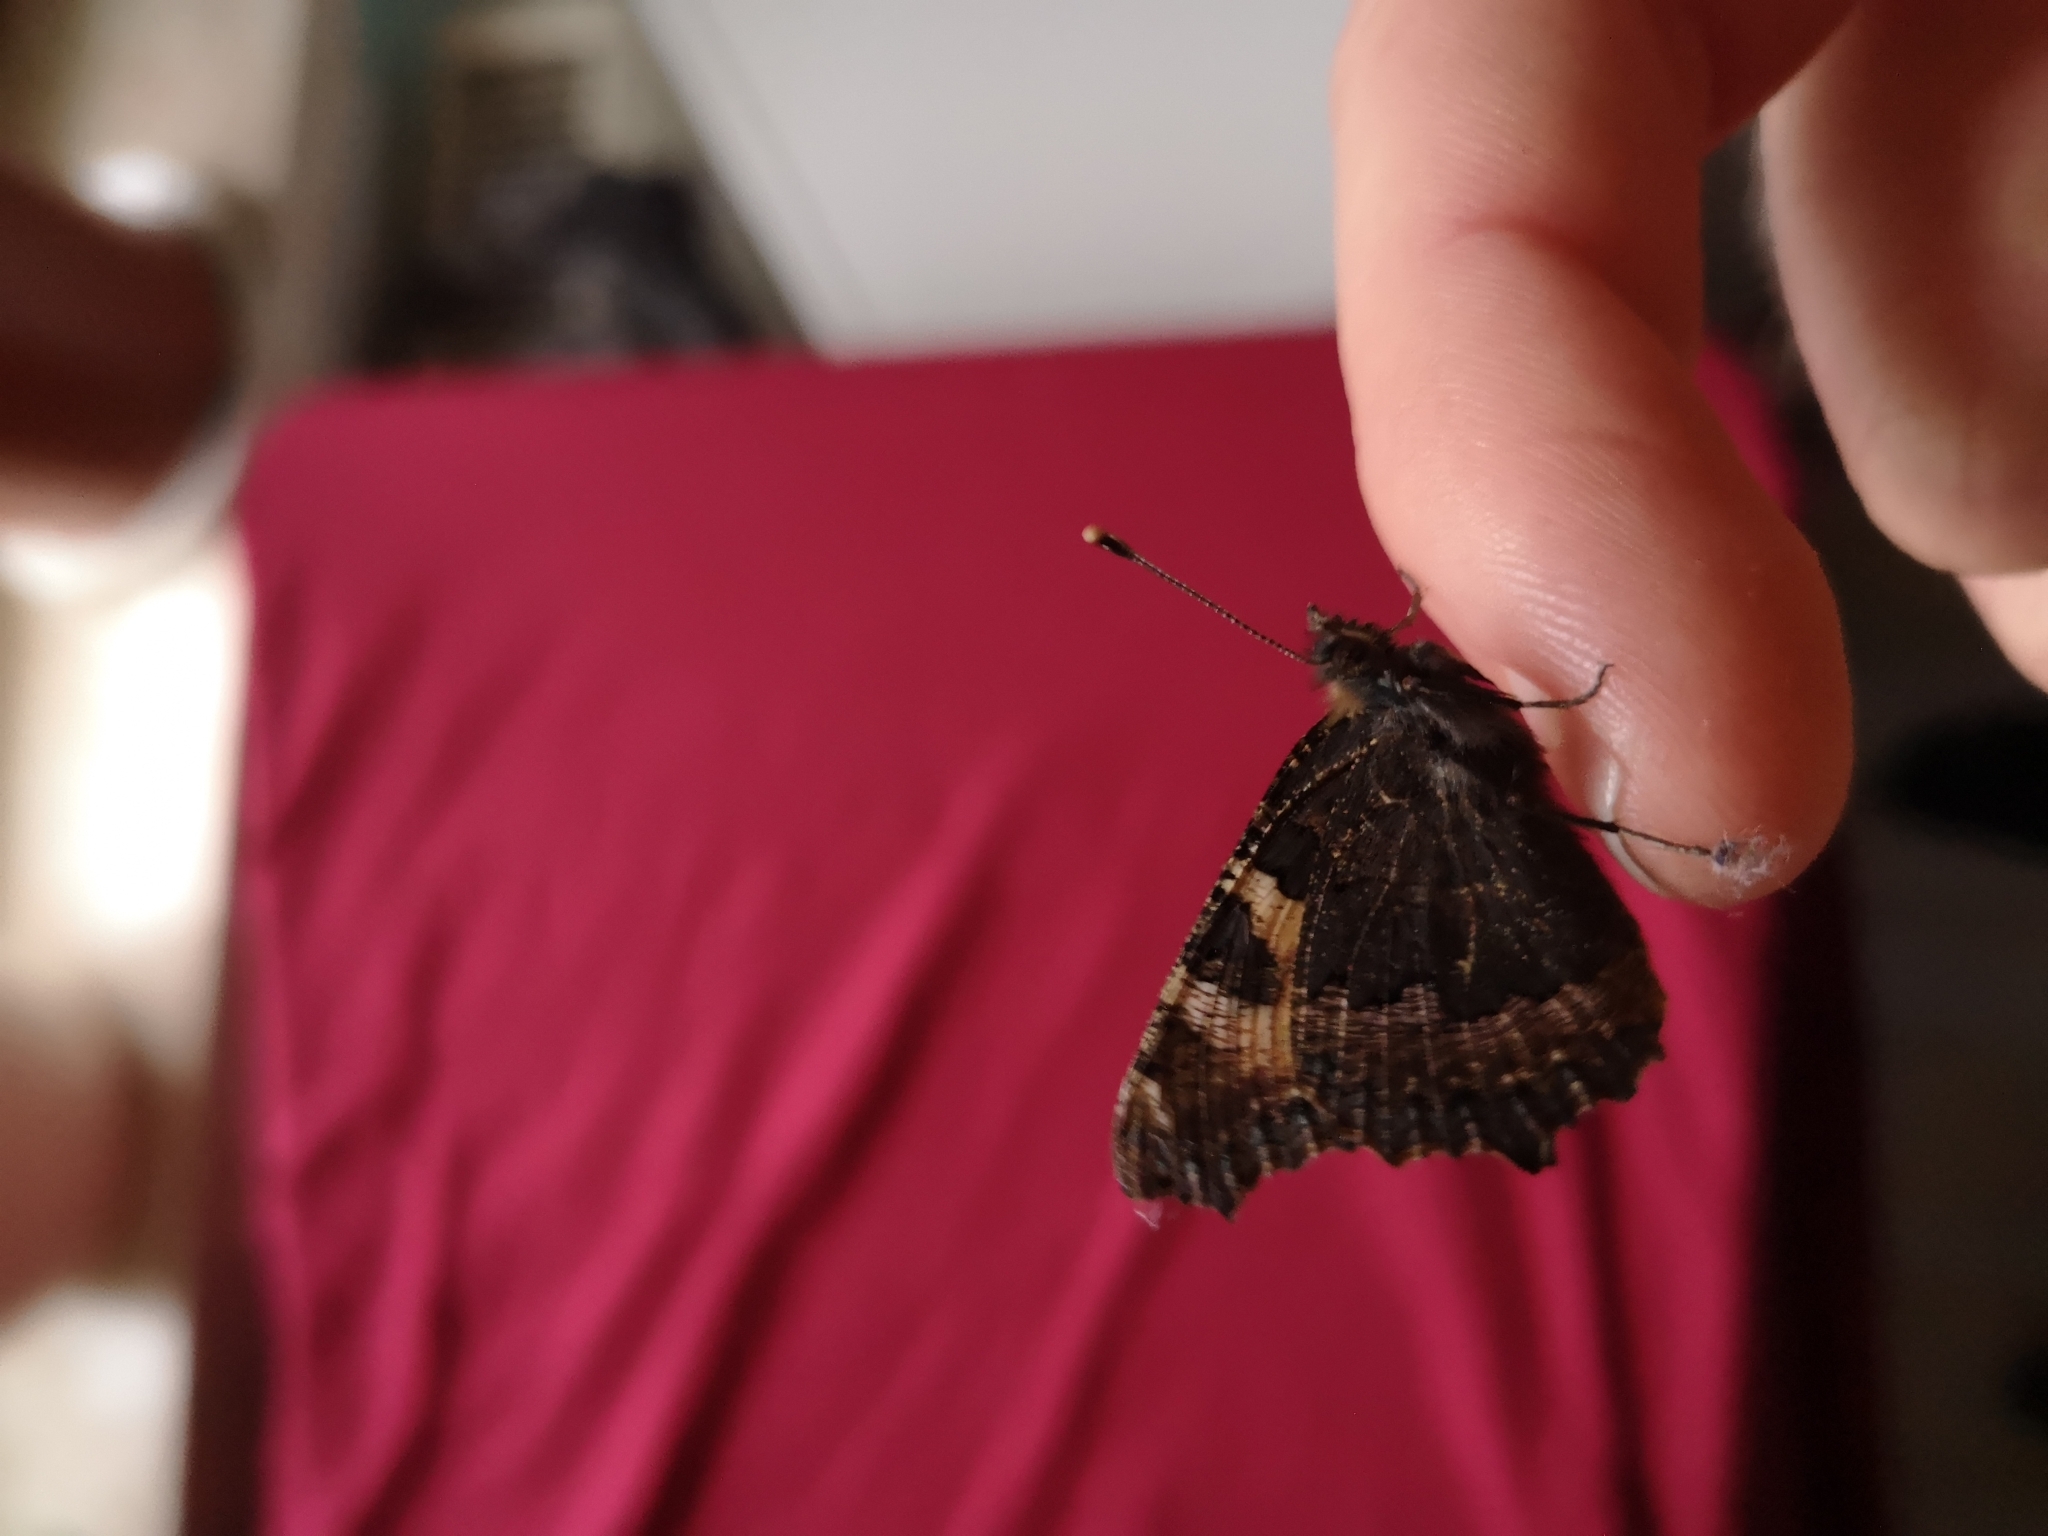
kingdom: Animalia
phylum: Arthropoda
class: Insecta
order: Lepidoptera
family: Nymphalidae
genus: Aglais
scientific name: Aglais urticae
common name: Small tortoiseshell
